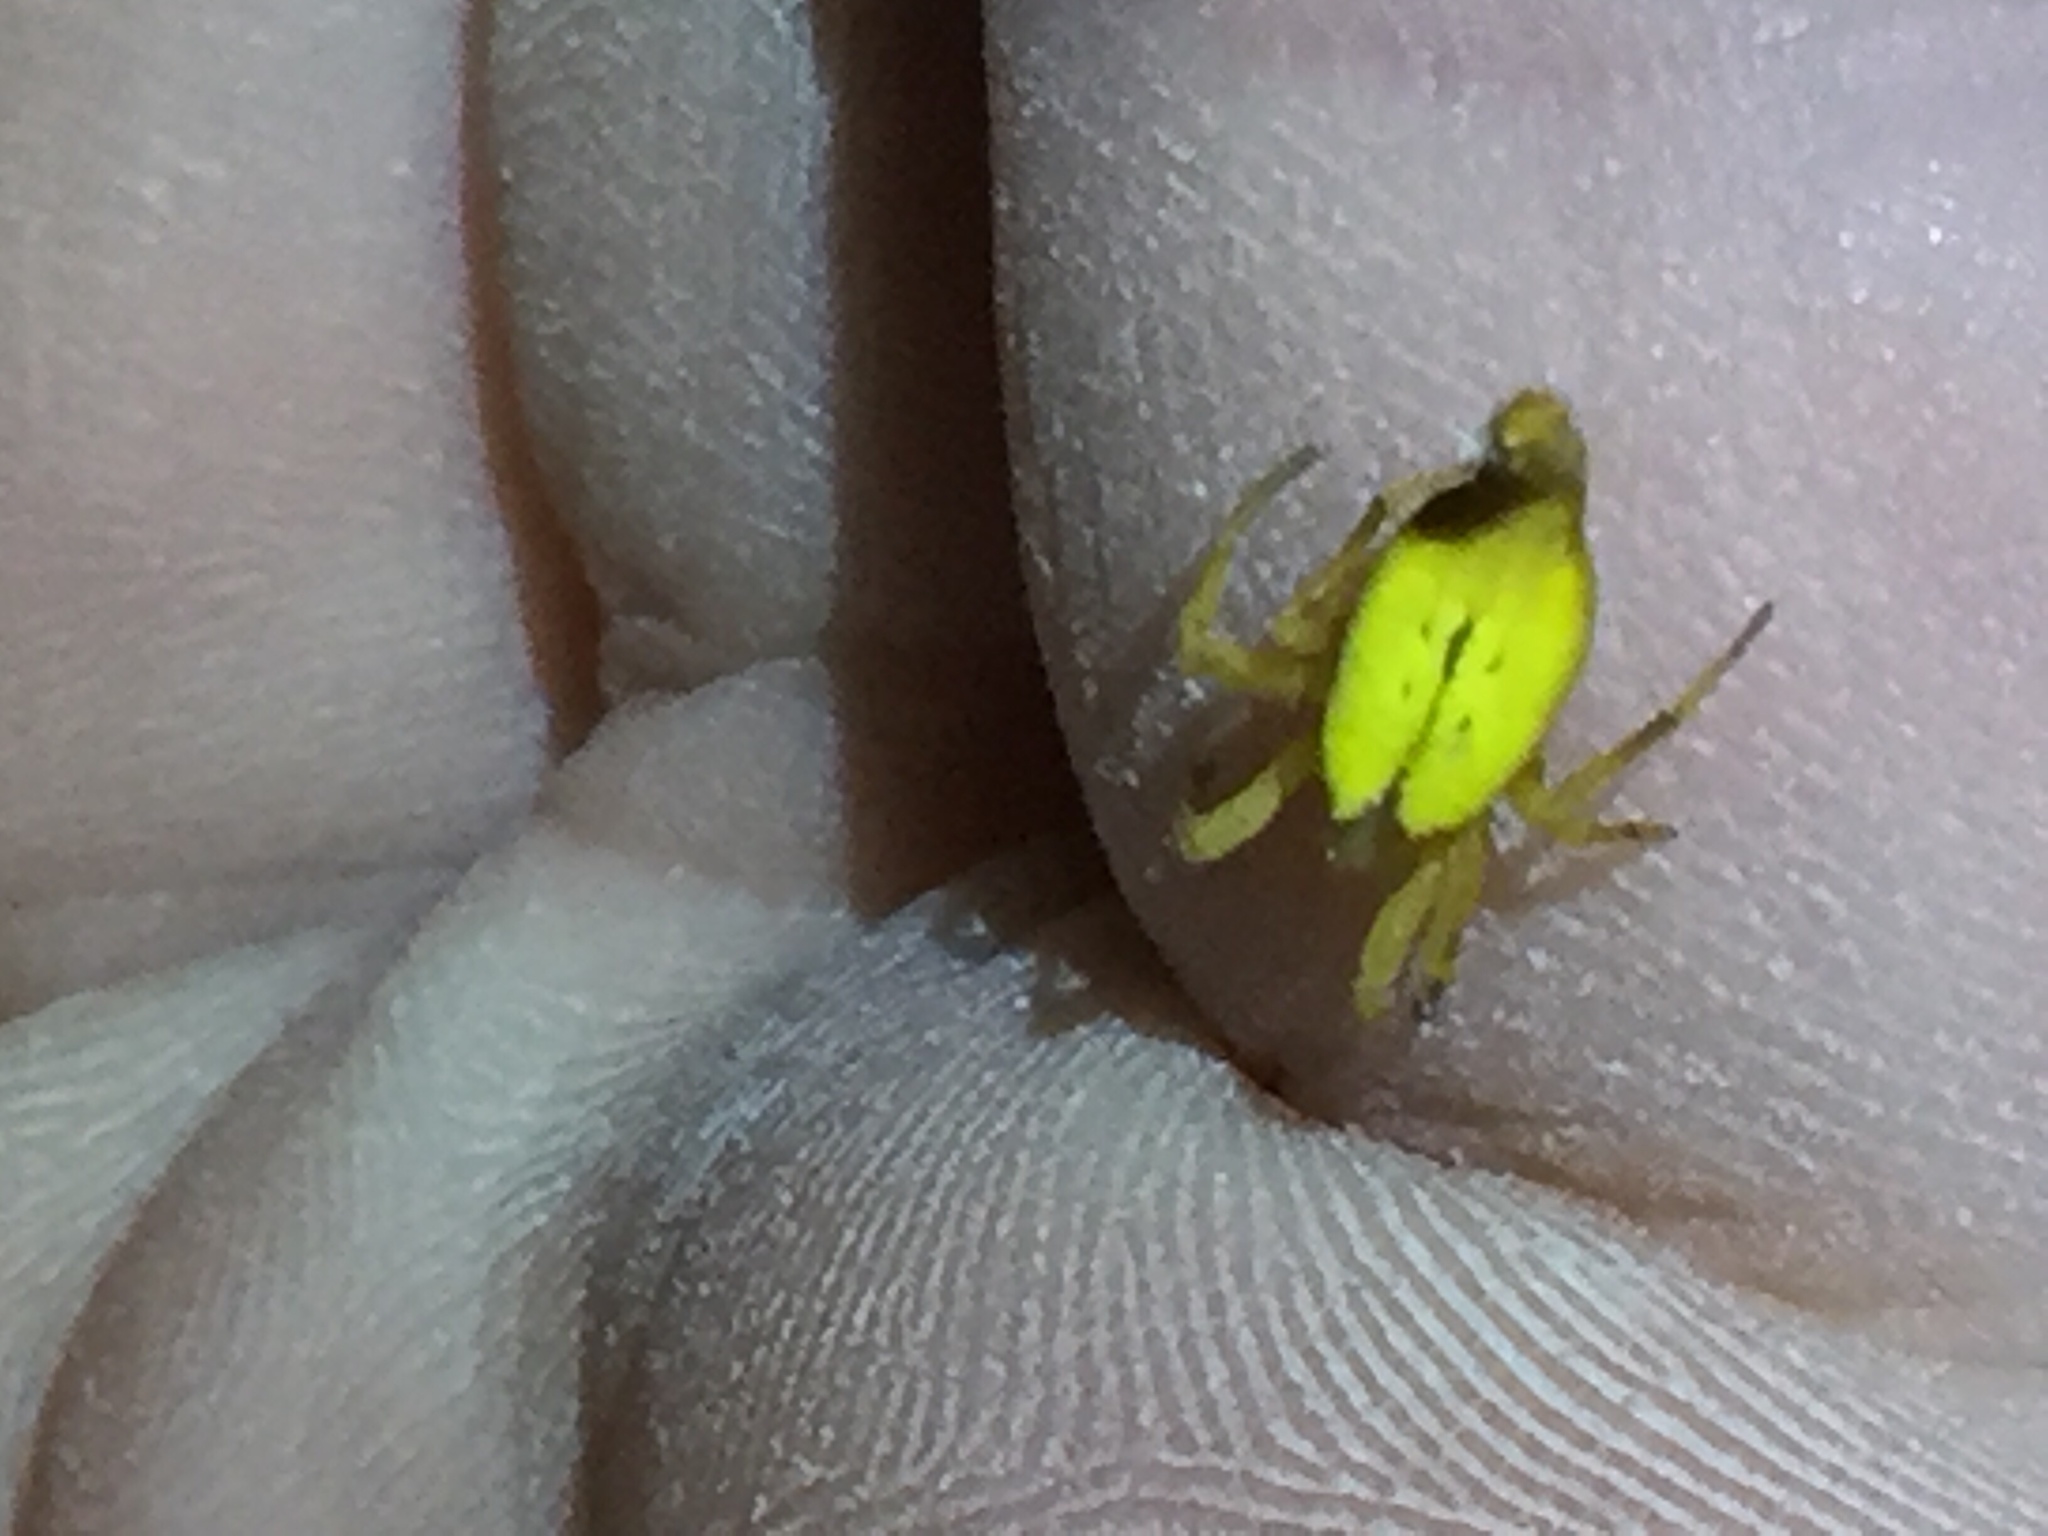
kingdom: Animalia
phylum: Arthropoda
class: Arachnida
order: Araneae
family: Araneidae
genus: Arachnura
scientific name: Arachnura feredayi
